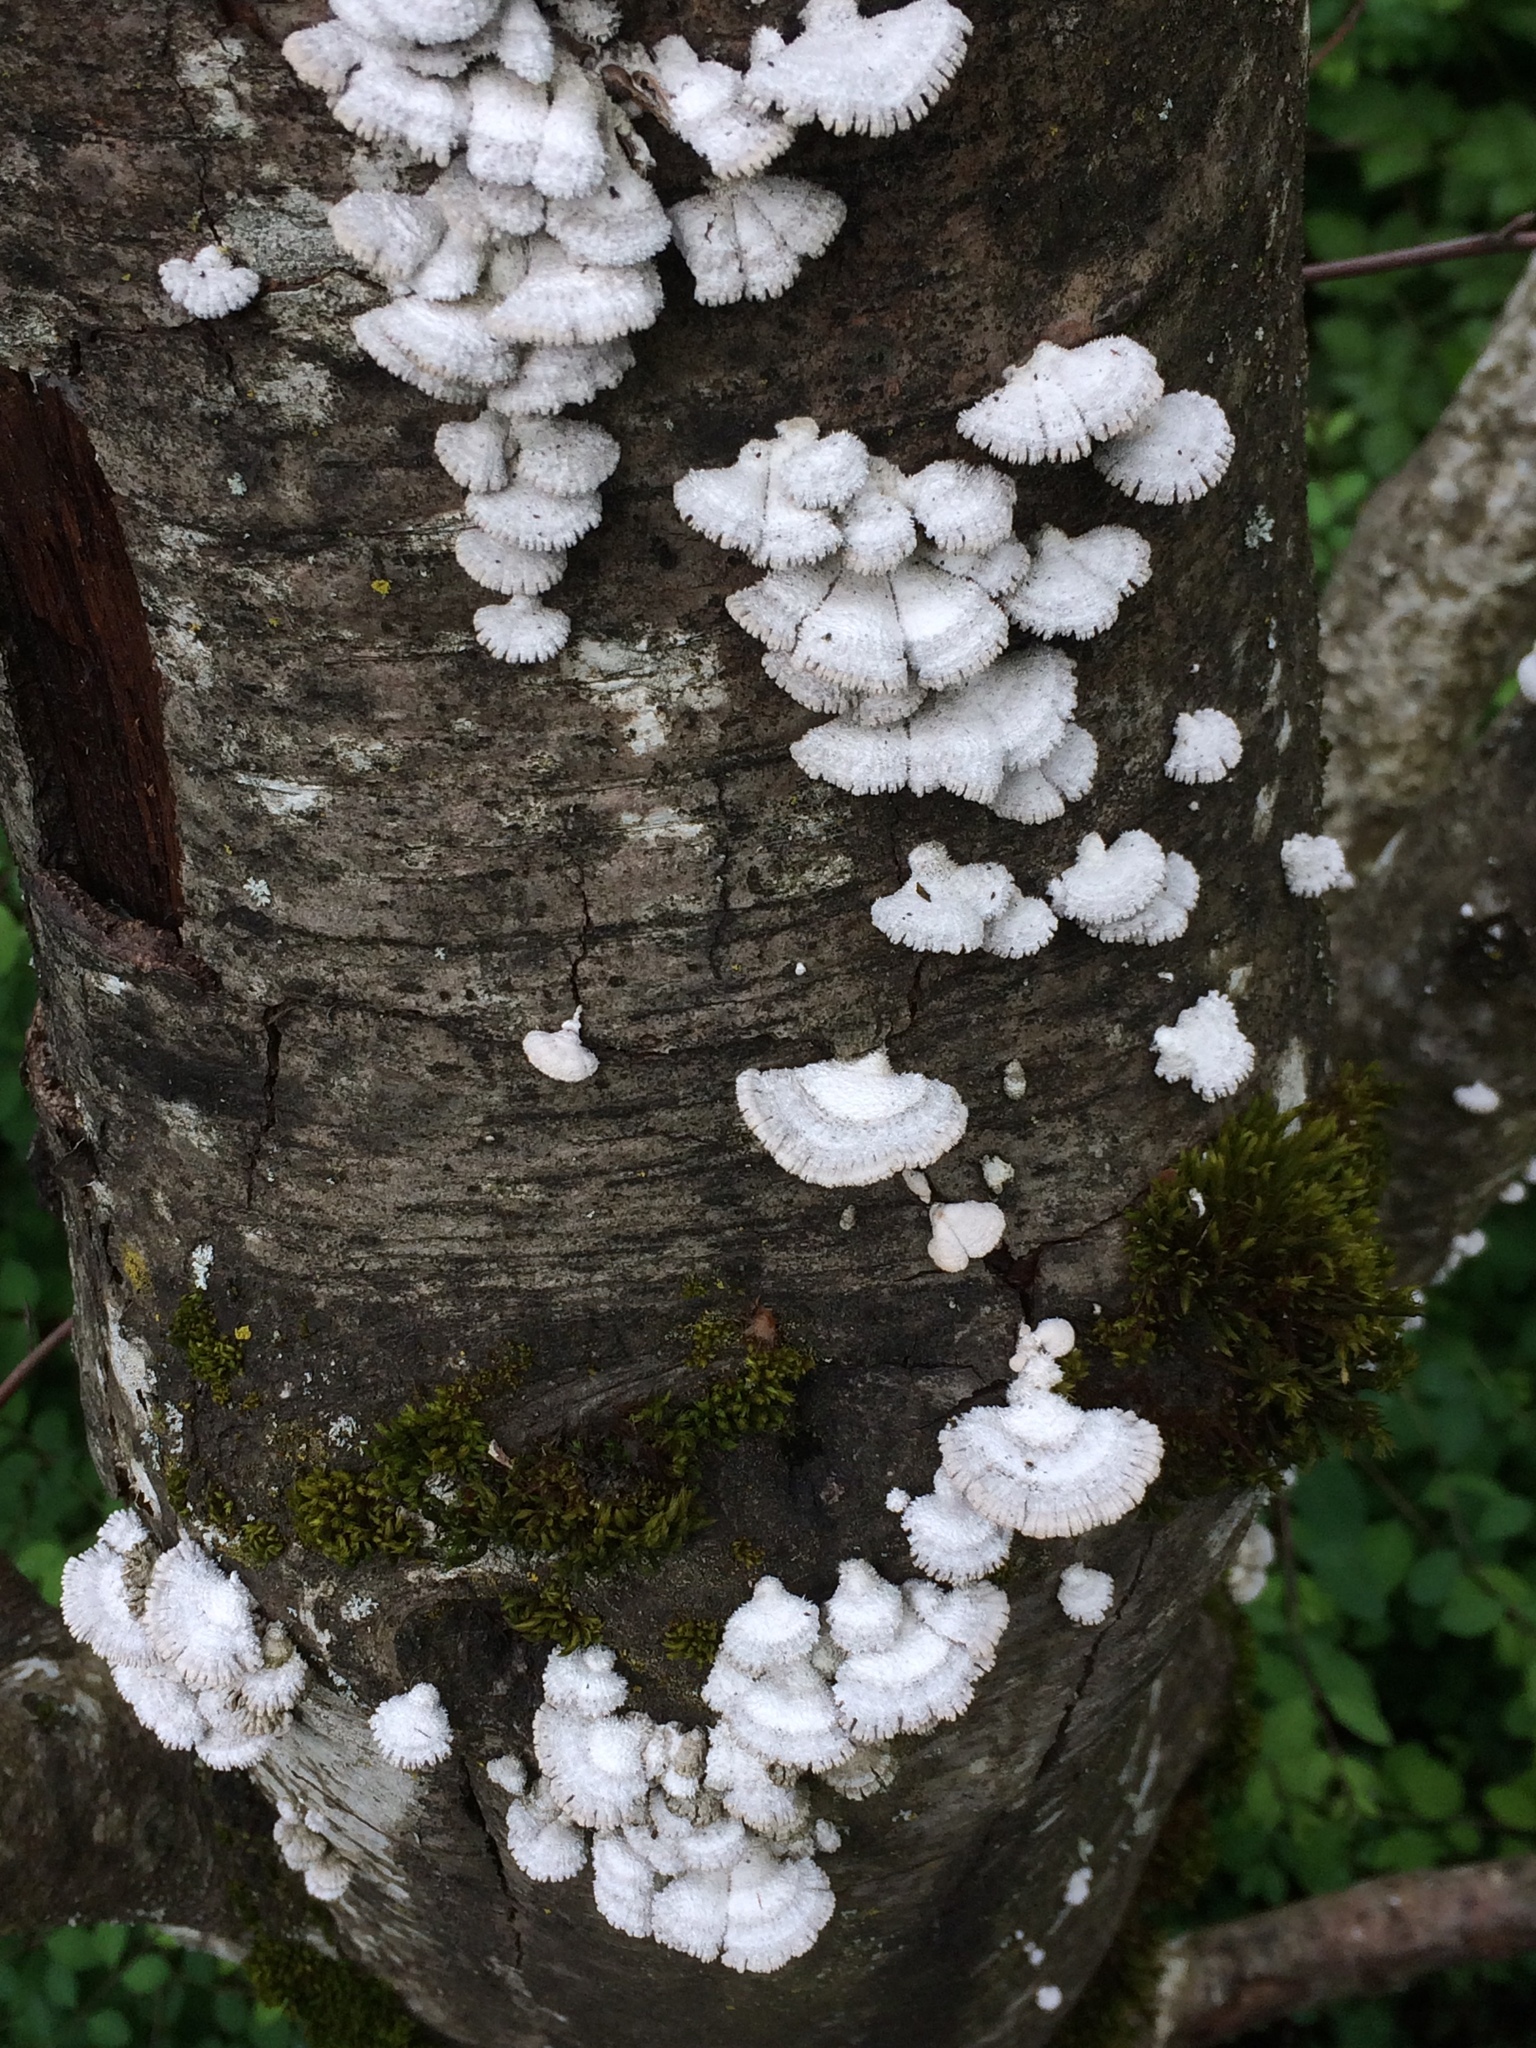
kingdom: Fungi
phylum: Basidiomycota
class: Agaricomycetes
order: Agaricales
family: Schizophyllaceae
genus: Schizophyllum
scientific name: Schizophyllum commune
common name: Common porecrust
